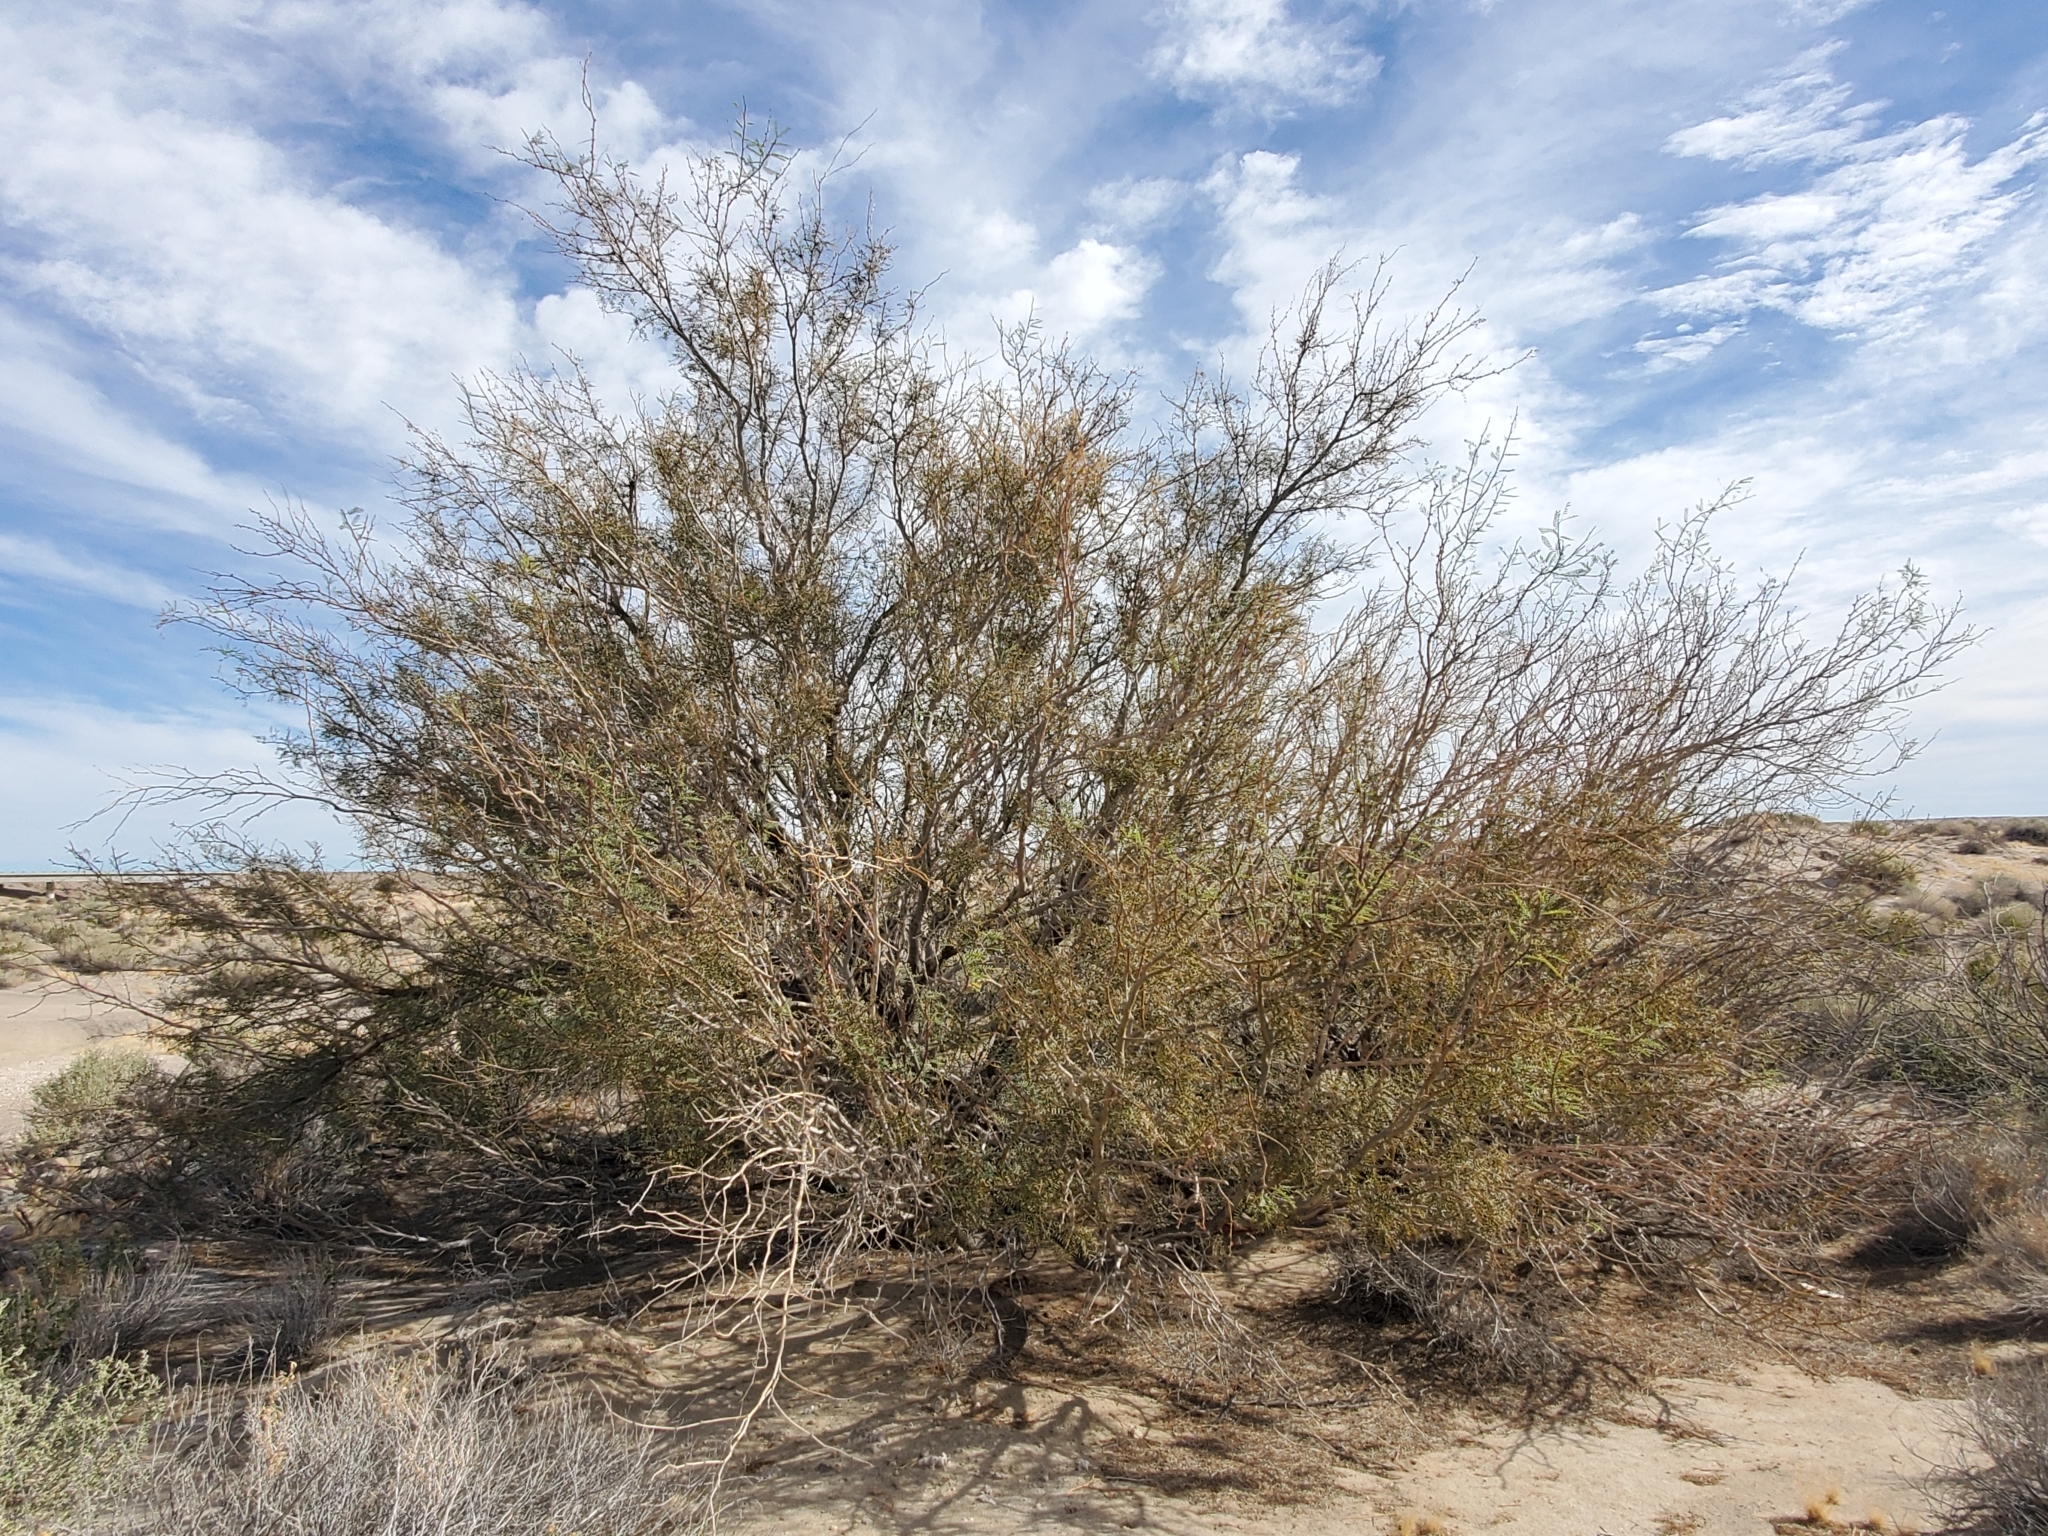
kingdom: Plantae
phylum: Tracheophyta
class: Magnoliopsida
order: Fabales
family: Fabaceae
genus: Prosopis
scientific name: Prosopis pubescens
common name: Screw-bean
